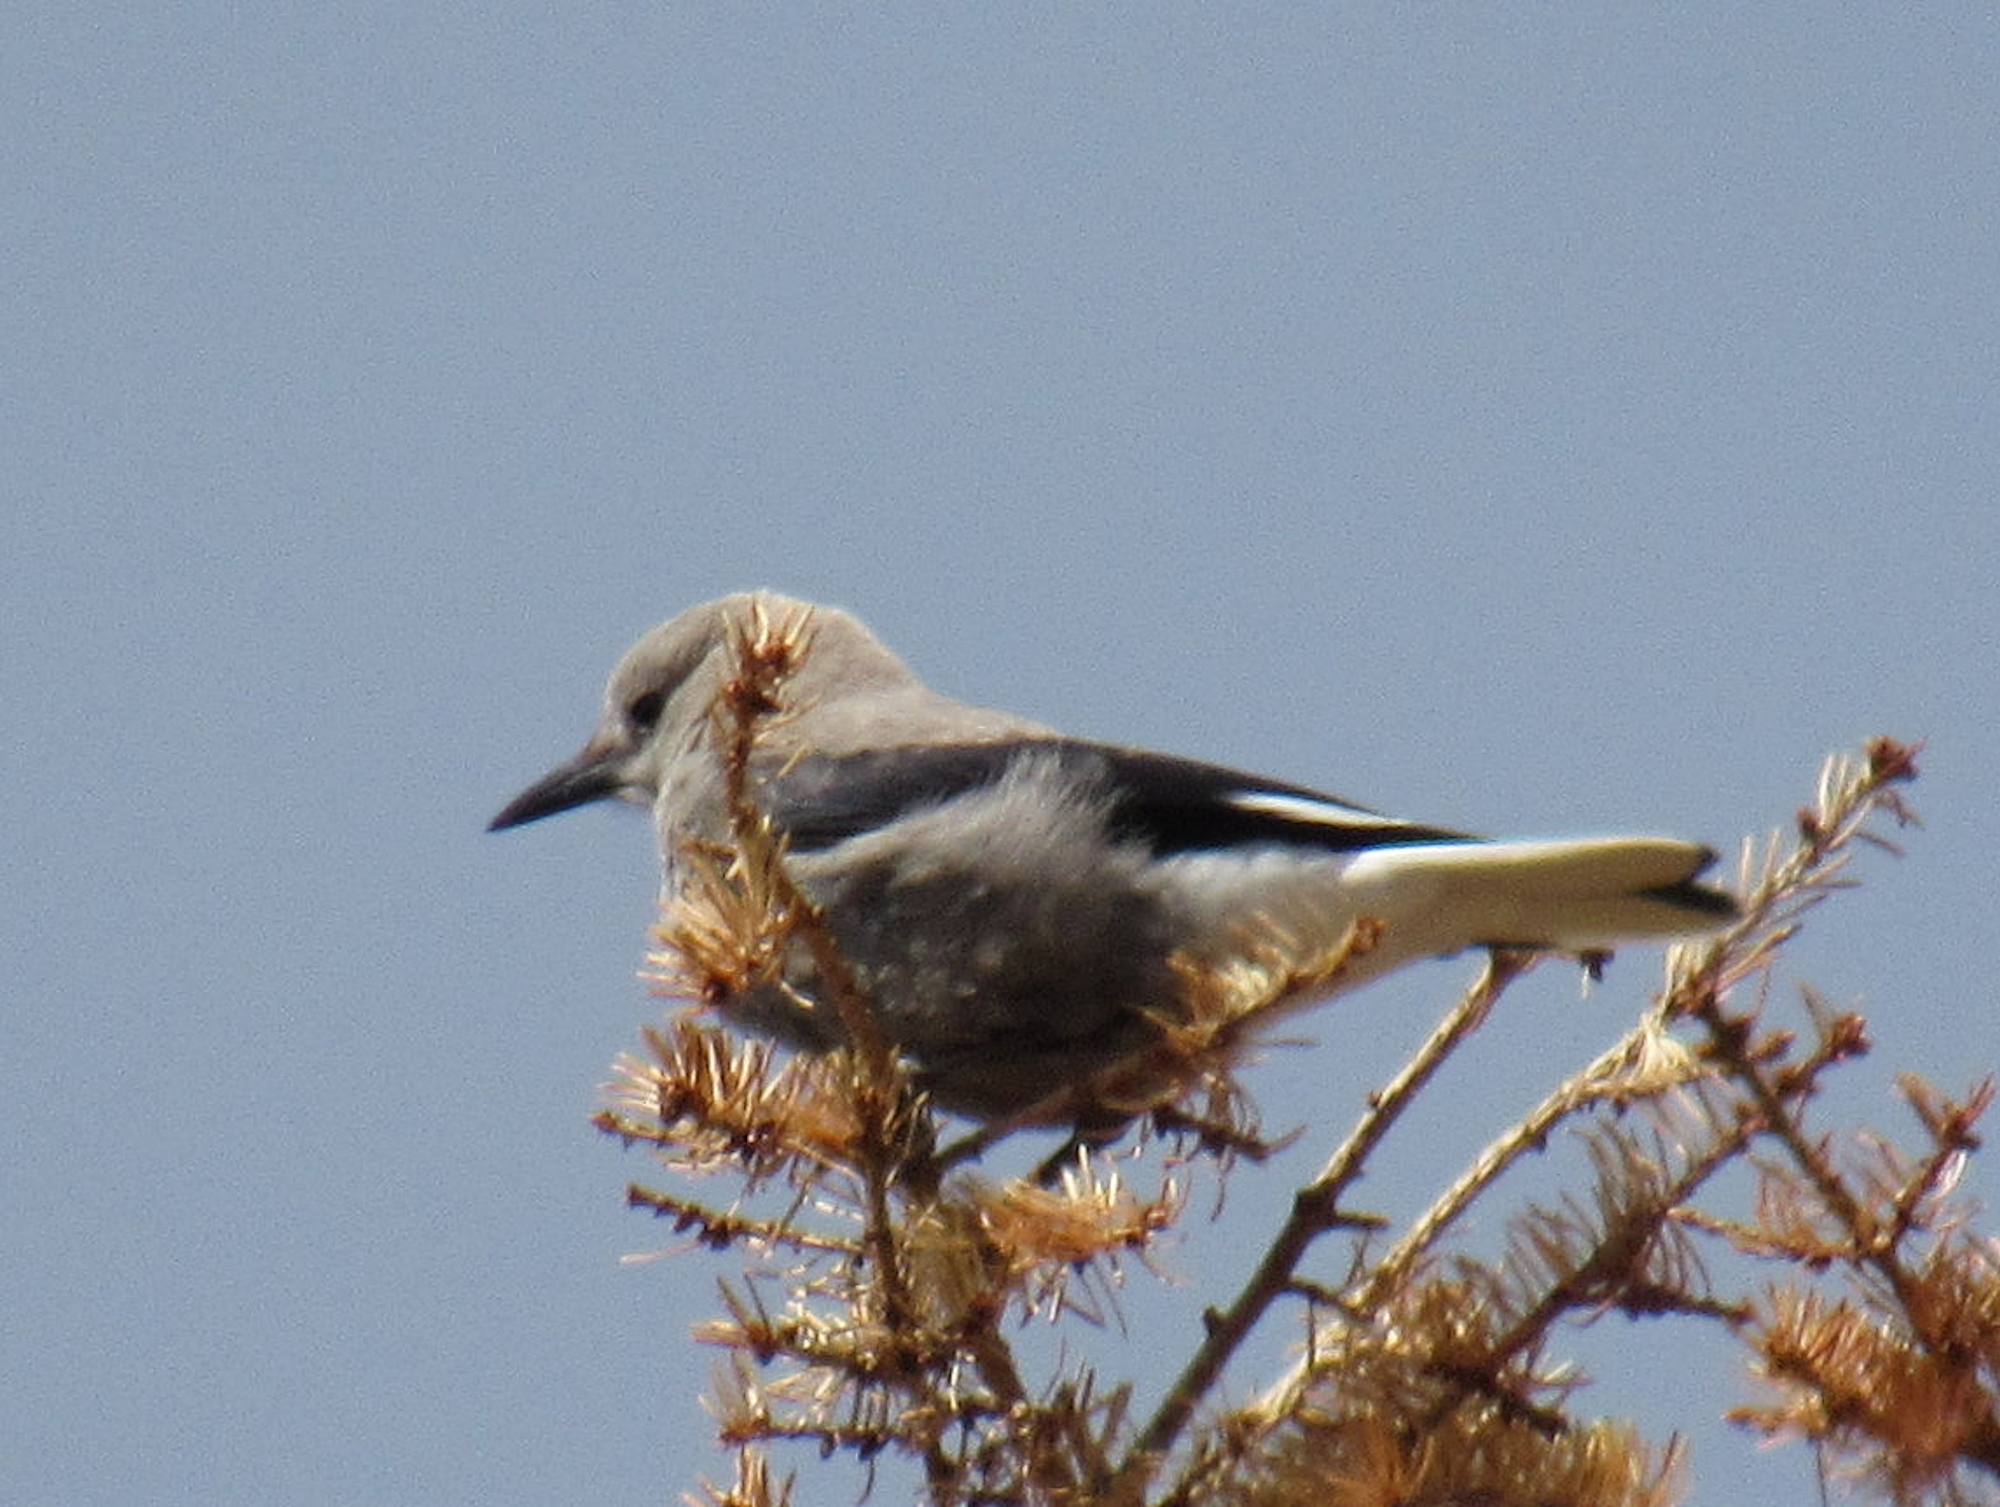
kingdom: Animalia
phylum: Chordata
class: Aves
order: Passeriformes
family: Corvidae
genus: Nucifraga
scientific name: Nucifraga columbiana
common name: Clark's nutcracker
